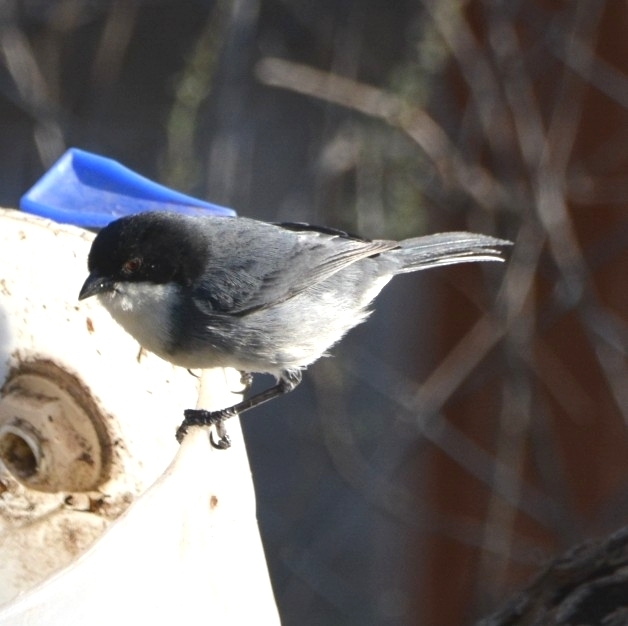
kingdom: Animalia
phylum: Chordata
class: Aves
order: Passeriformes
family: Thraupidae
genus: Microspingus
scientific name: Microspingus melanoleucus
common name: Black-capped warbling-finch
